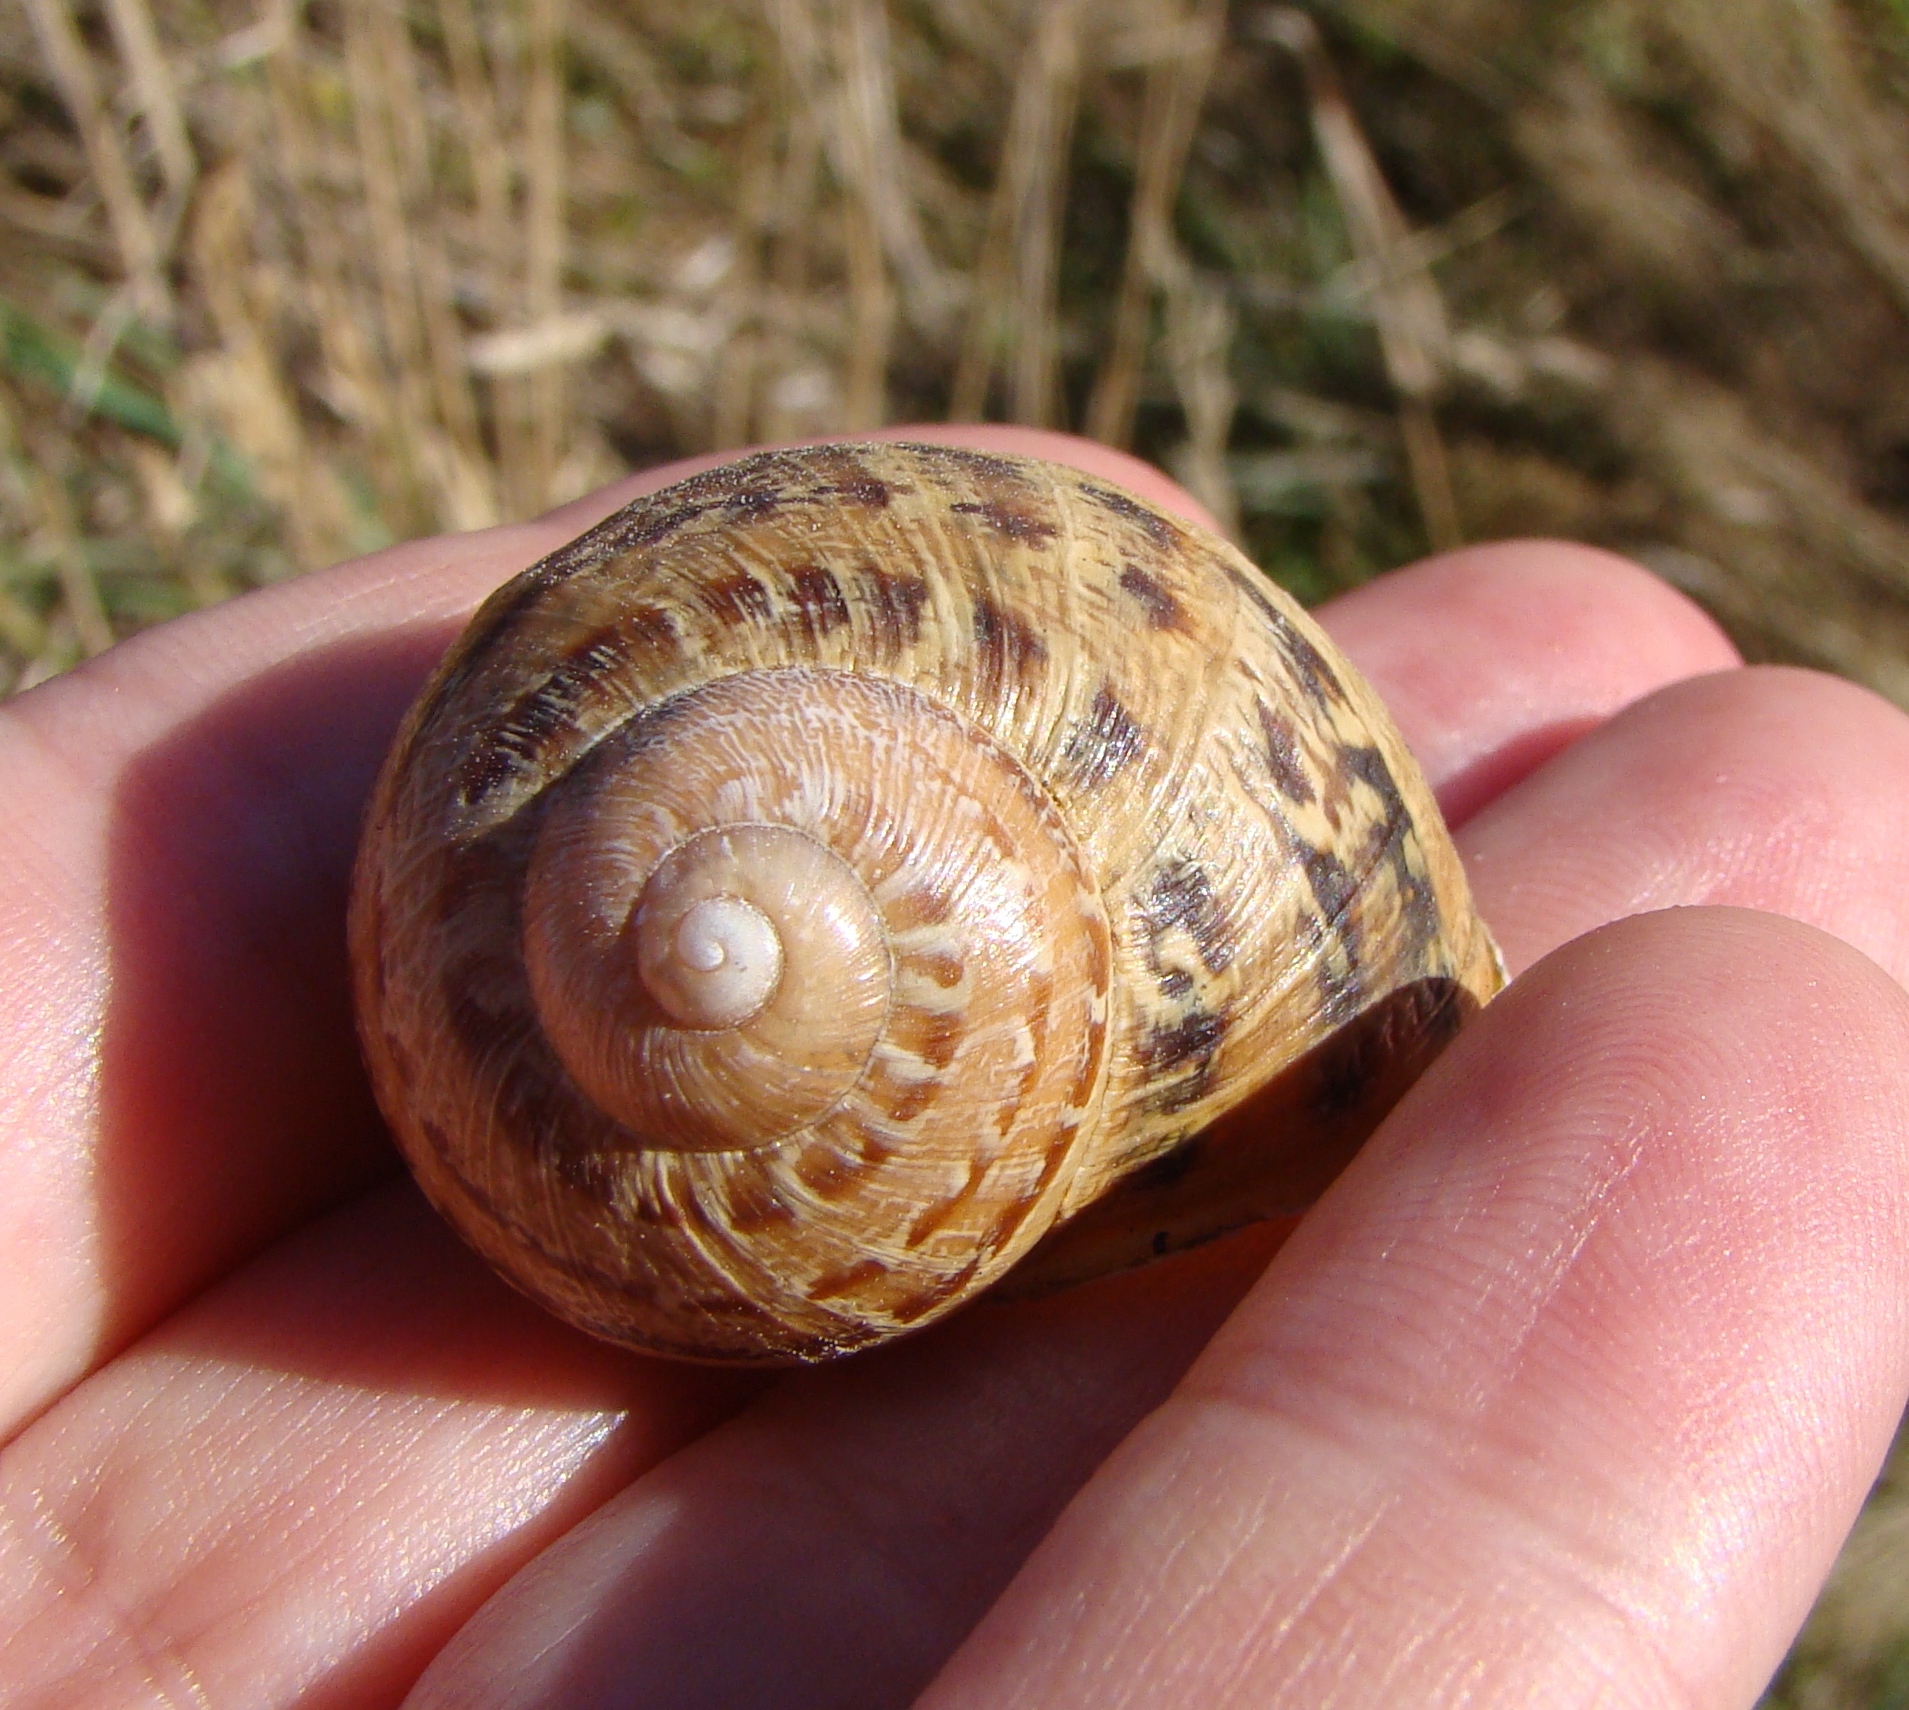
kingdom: Animalia
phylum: Mollusca
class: Gastropoda
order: Stylommatophora
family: Helicidae
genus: Cornu
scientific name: Cornu aspersum
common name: Brown garden snail
